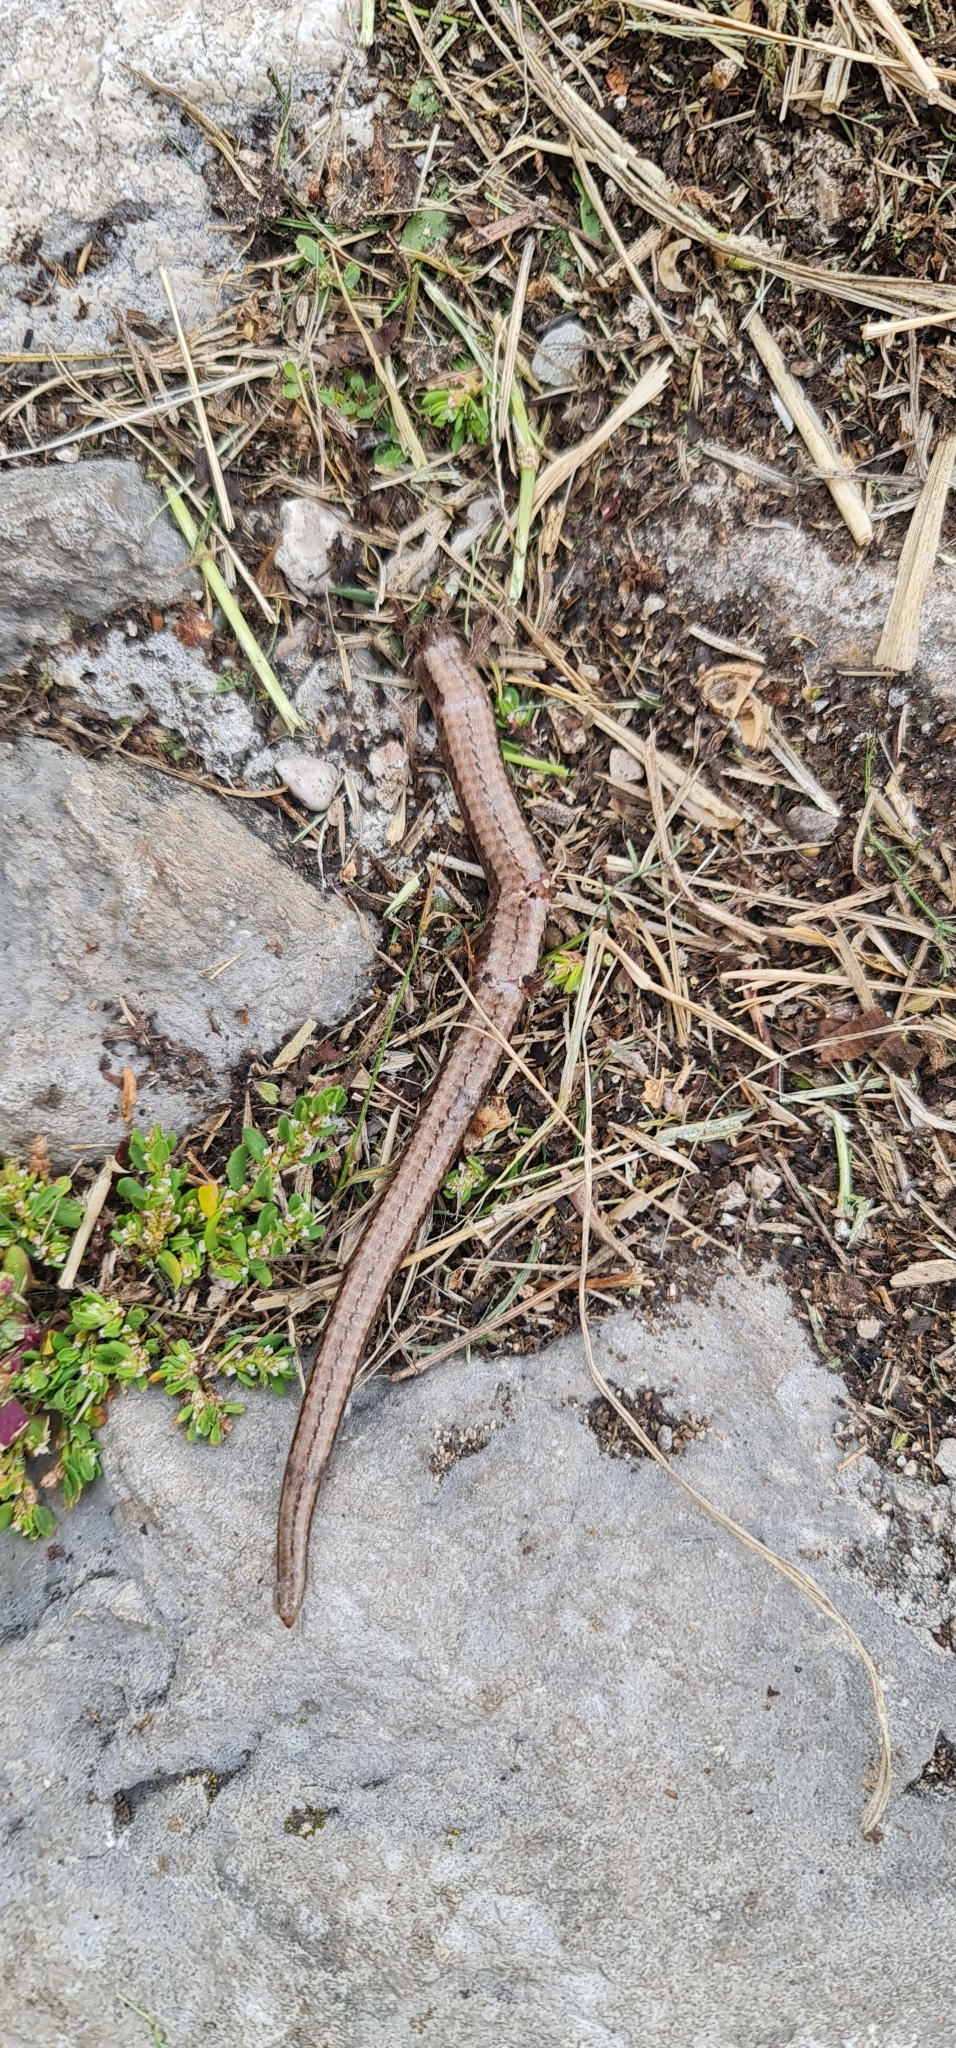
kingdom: Animalia
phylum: Chordata
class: Squamata
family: Anguidae
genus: Anguis
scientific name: Anguis veronensis
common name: Italian slow worm
